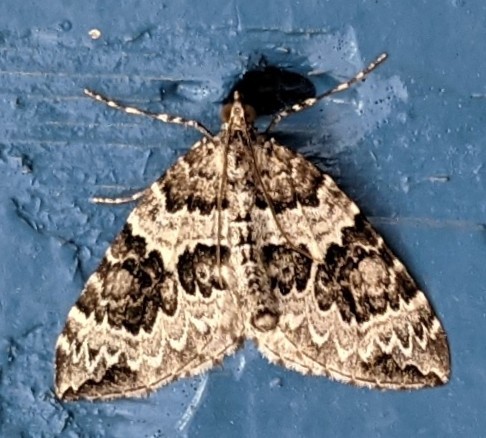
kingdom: Animalia
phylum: Arthropoda
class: Insecta
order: Lepidoptera
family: Geometridae
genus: Eulithis
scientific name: Eulithis explanata
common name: White eulithis
